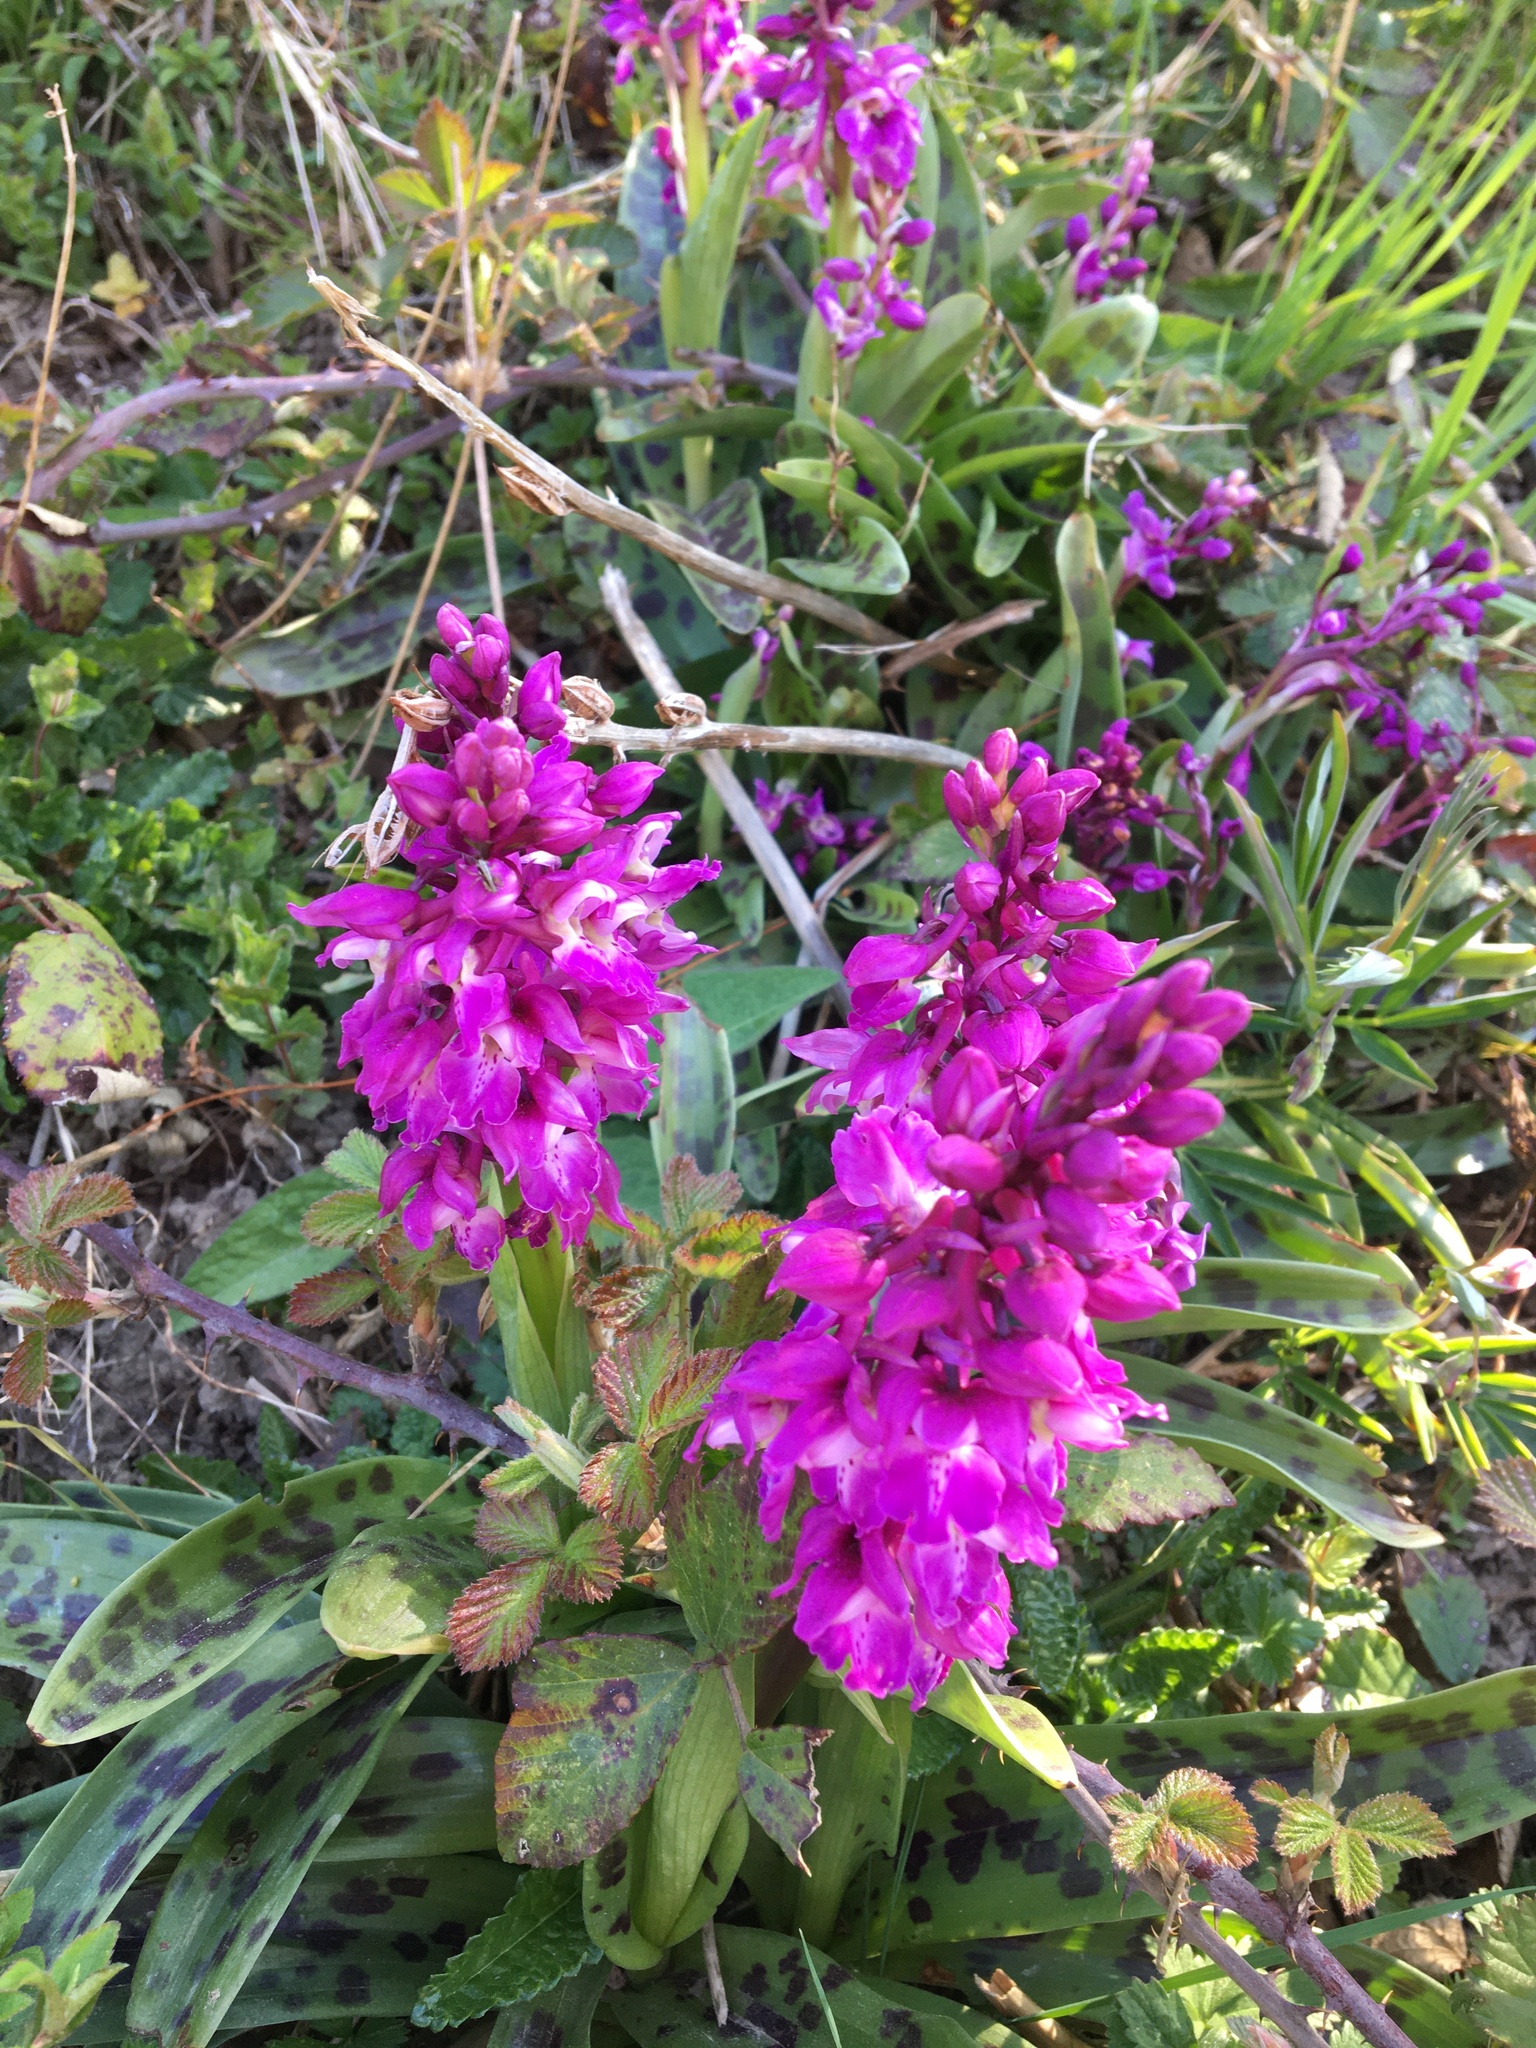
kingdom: Plantae
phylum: Tracheophyta
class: Liliopsida
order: Asparagales
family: Orchidaceae
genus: Orchis
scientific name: Orchis mascula
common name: Early-purple orchid
